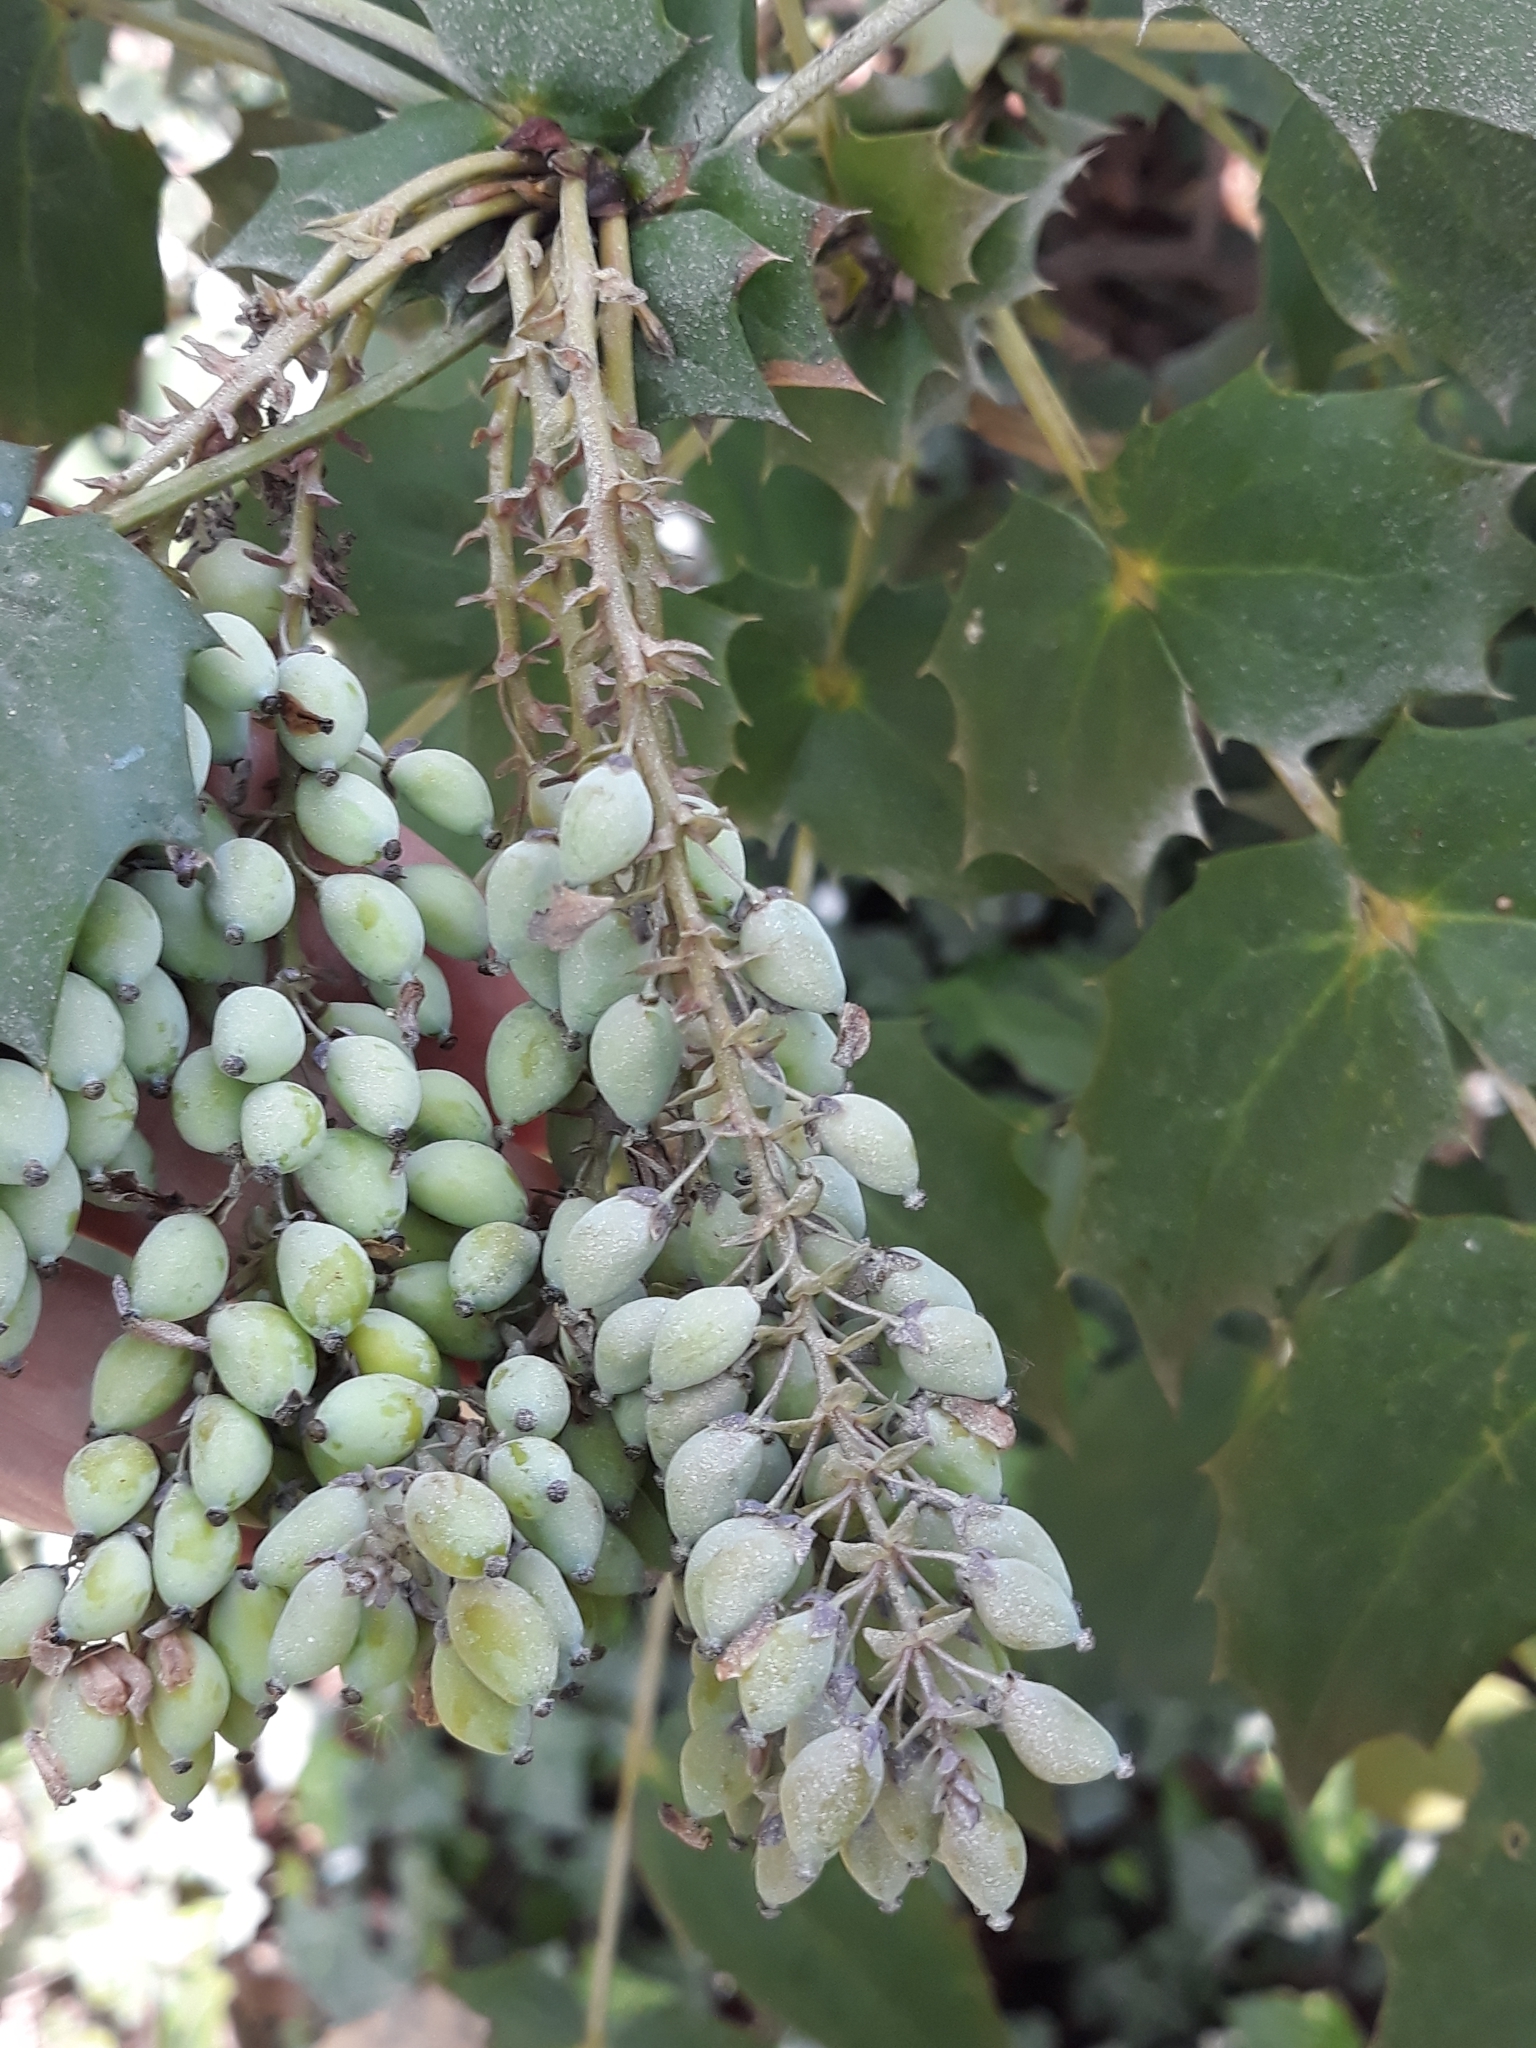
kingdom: Plantae
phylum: Tracheophyta
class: Magnoliopsida
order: Ranunculales
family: Berberidaceae
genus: Mahonia
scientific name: Mahonia aquifolium
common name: Oregon-grape
